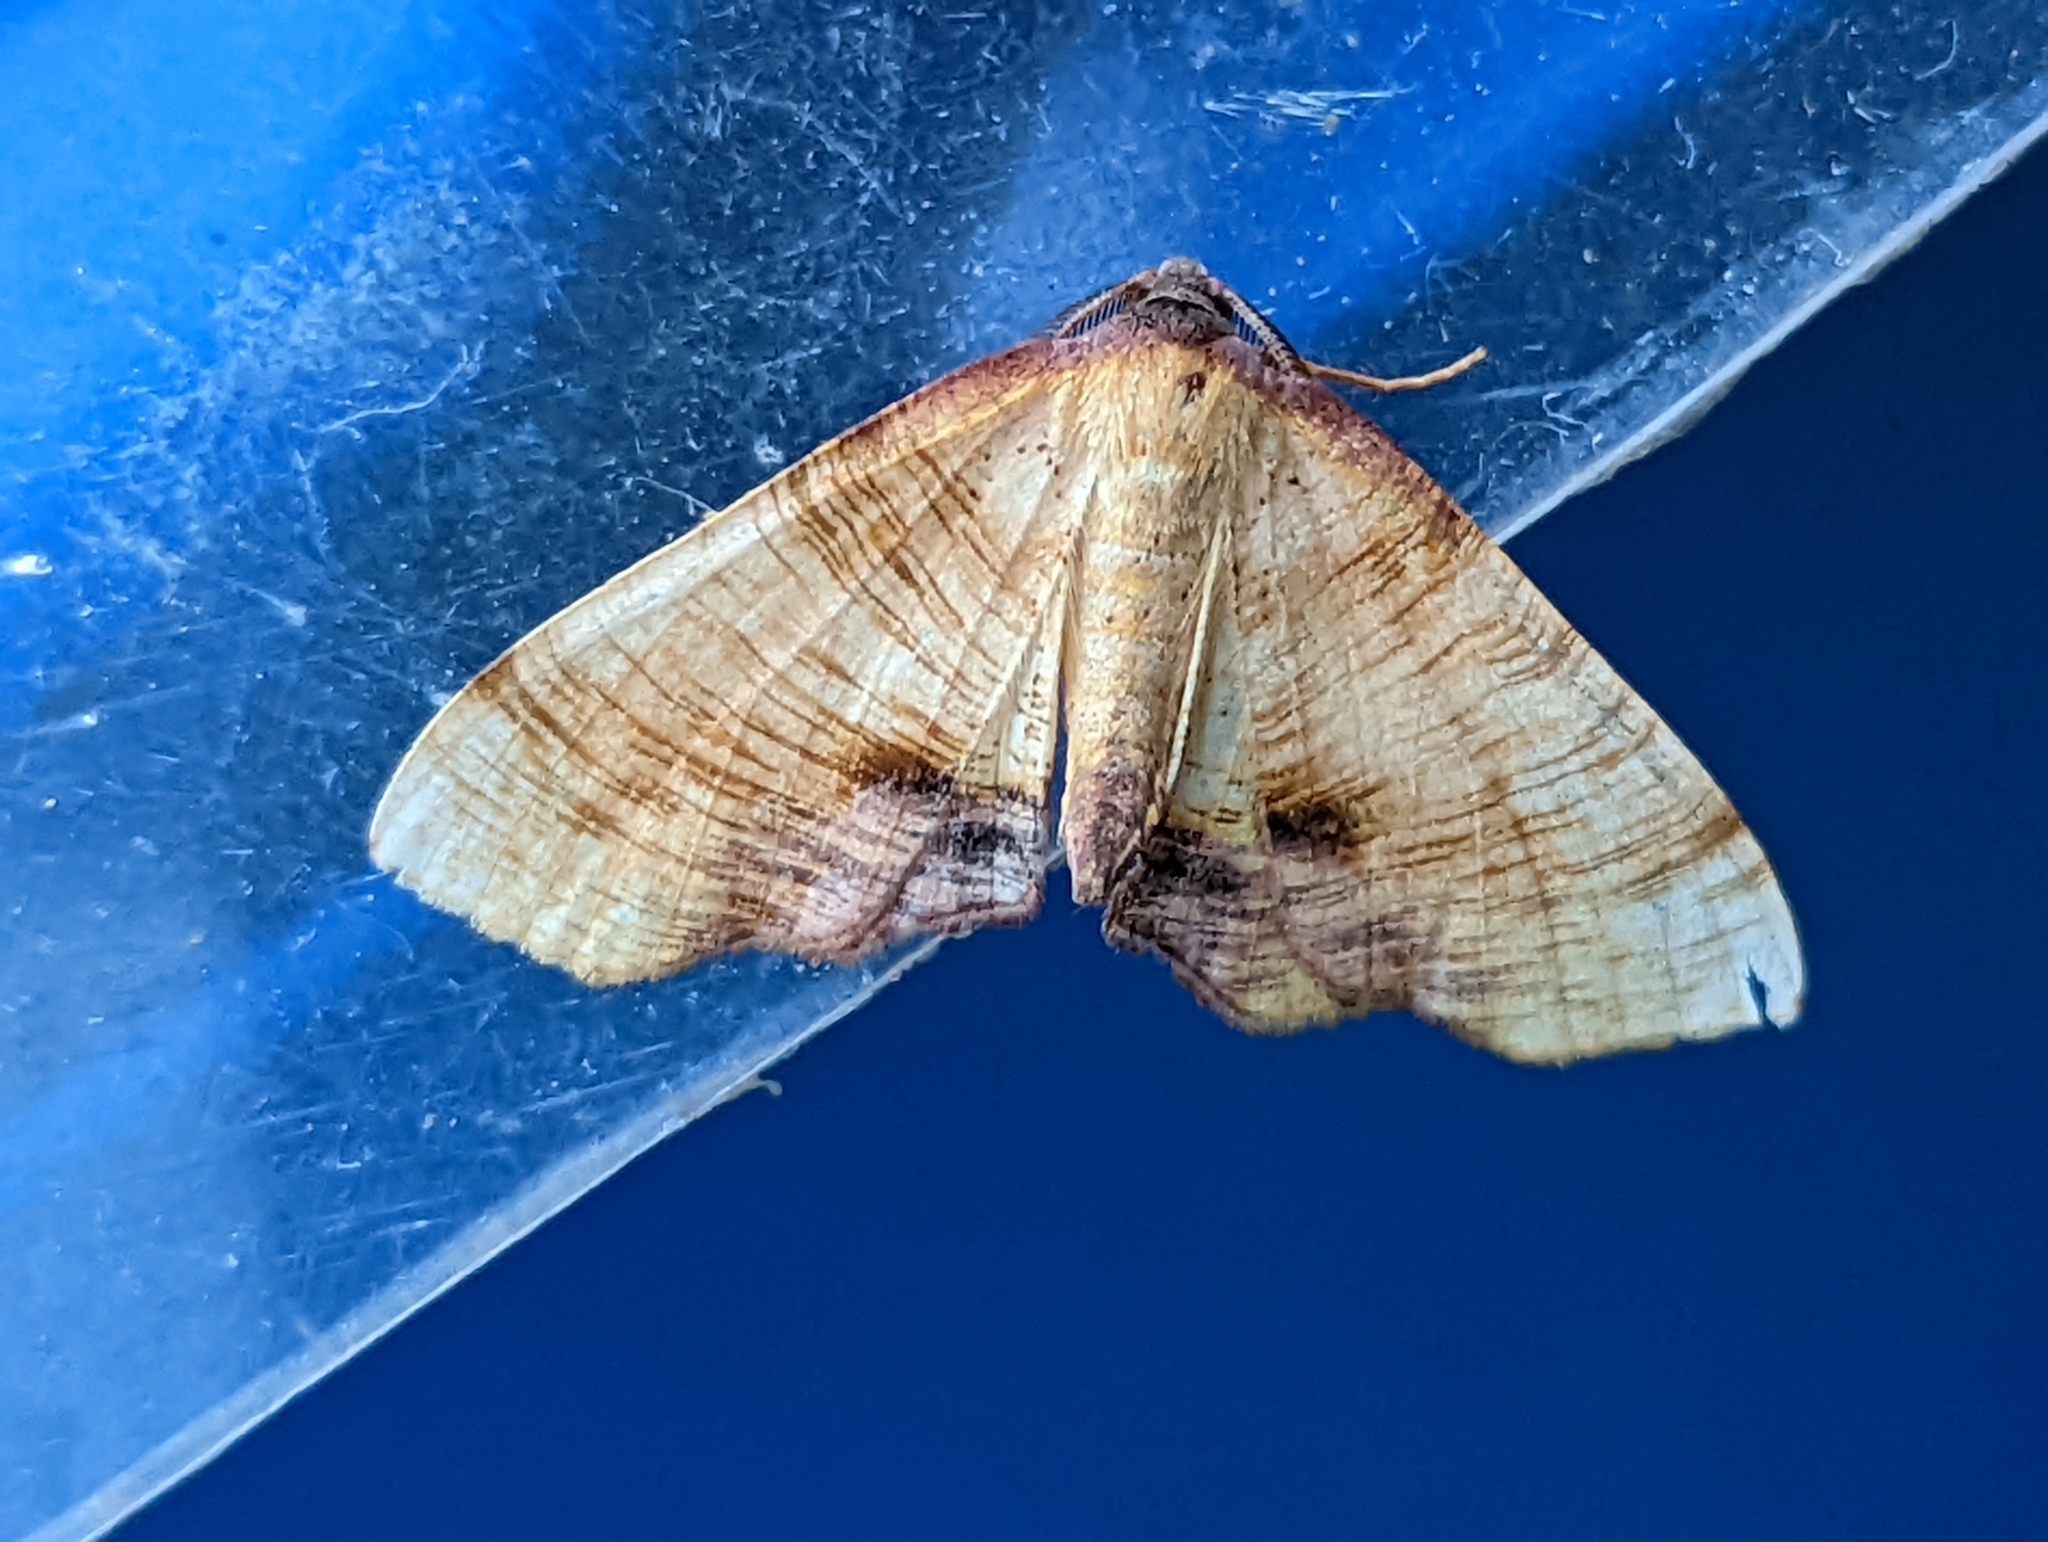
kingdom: Animalia
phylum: Arthropoda
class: Insecta
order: Lepidoptera
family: Geometridae
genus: Plagodis
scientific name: Plagodis dolabraria
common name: Scorched wing
